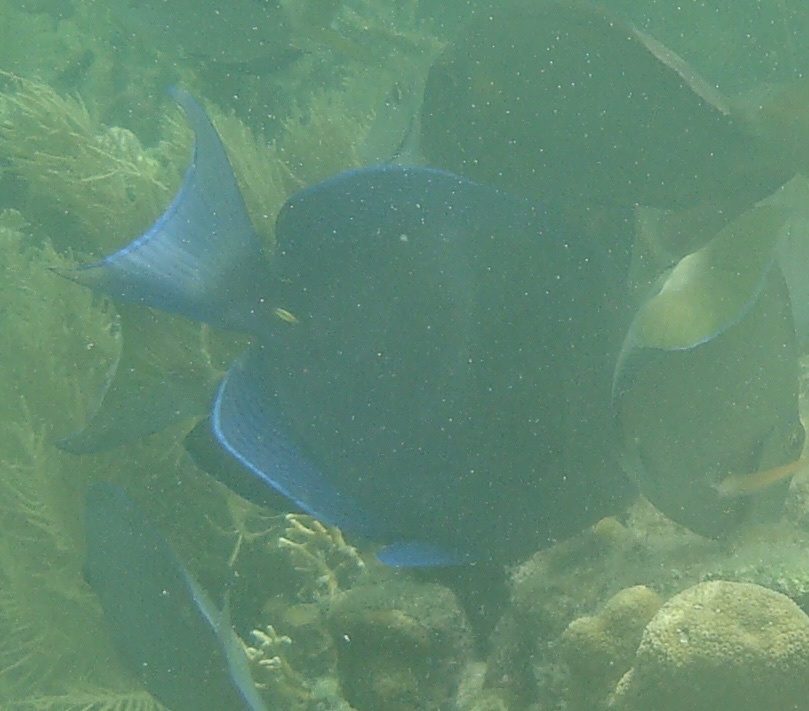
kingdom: Animalia
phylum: Chordata
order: Perciformes
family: Acanthuridae
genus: Acanthurus
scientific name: Acanthurus coeruleus
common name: Blue tang
